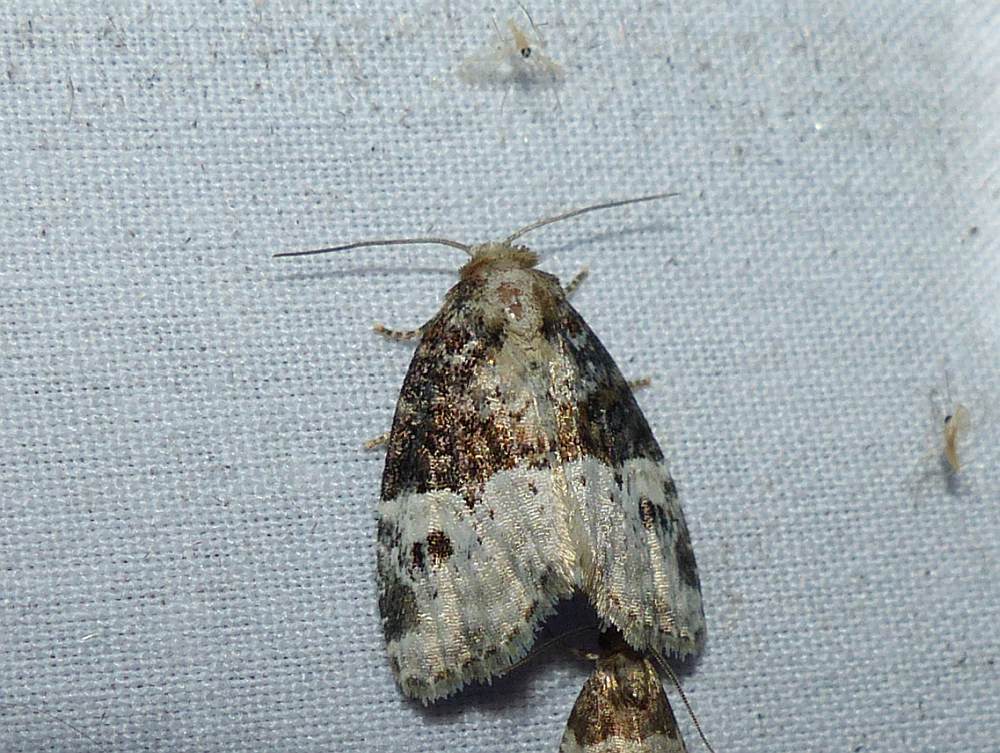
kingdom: Animalia
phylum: Arthropoda
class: Insecta
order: Lepidoptera
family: Noctuidae
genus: Neoligia
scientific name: Neoligia crytora
